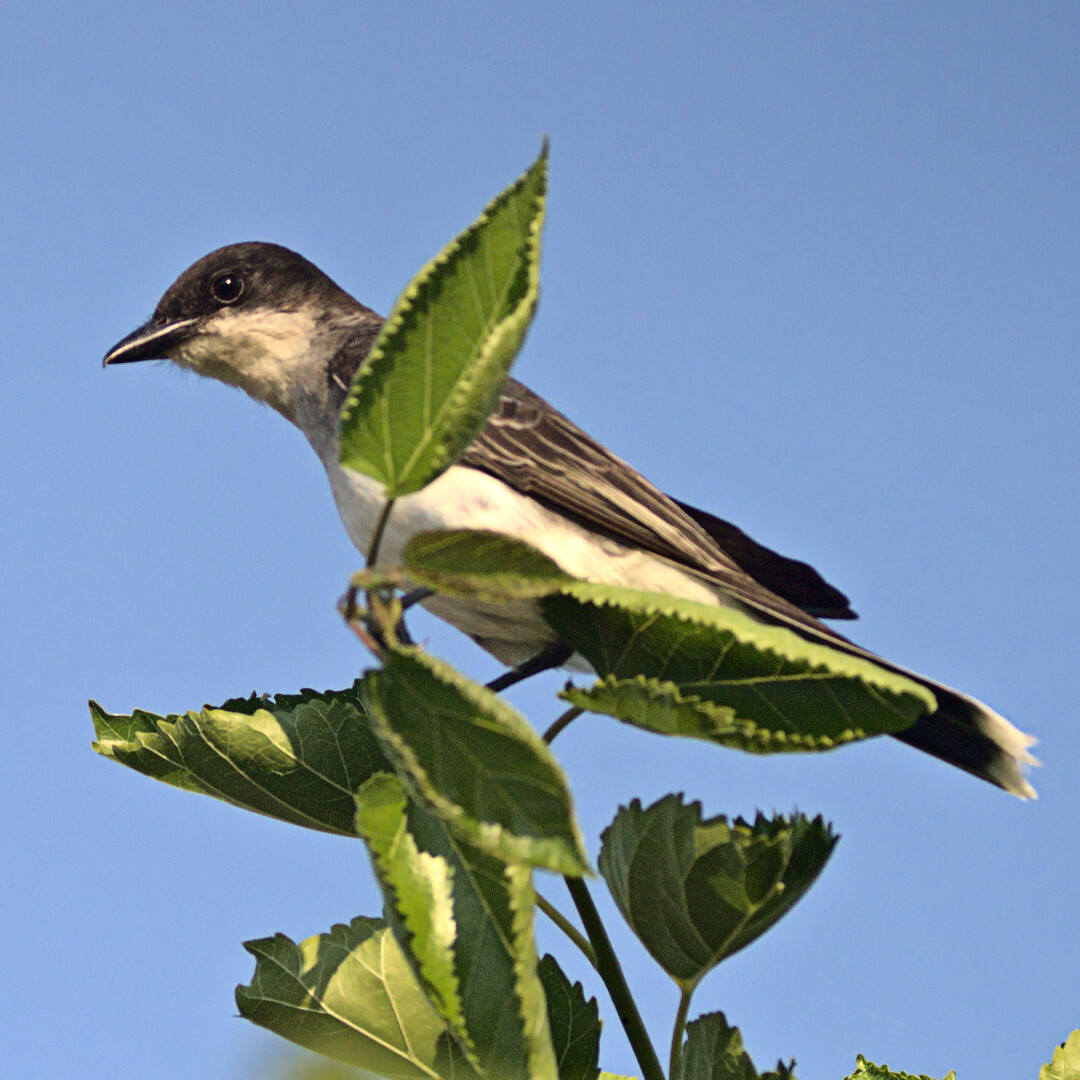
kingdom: Animalia
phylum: Chordata
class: Aves
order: Passeriformes
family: Tyrannidae
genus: Tyrannus
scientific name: Tyrannus tyrannus
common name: Eastern kingbird
